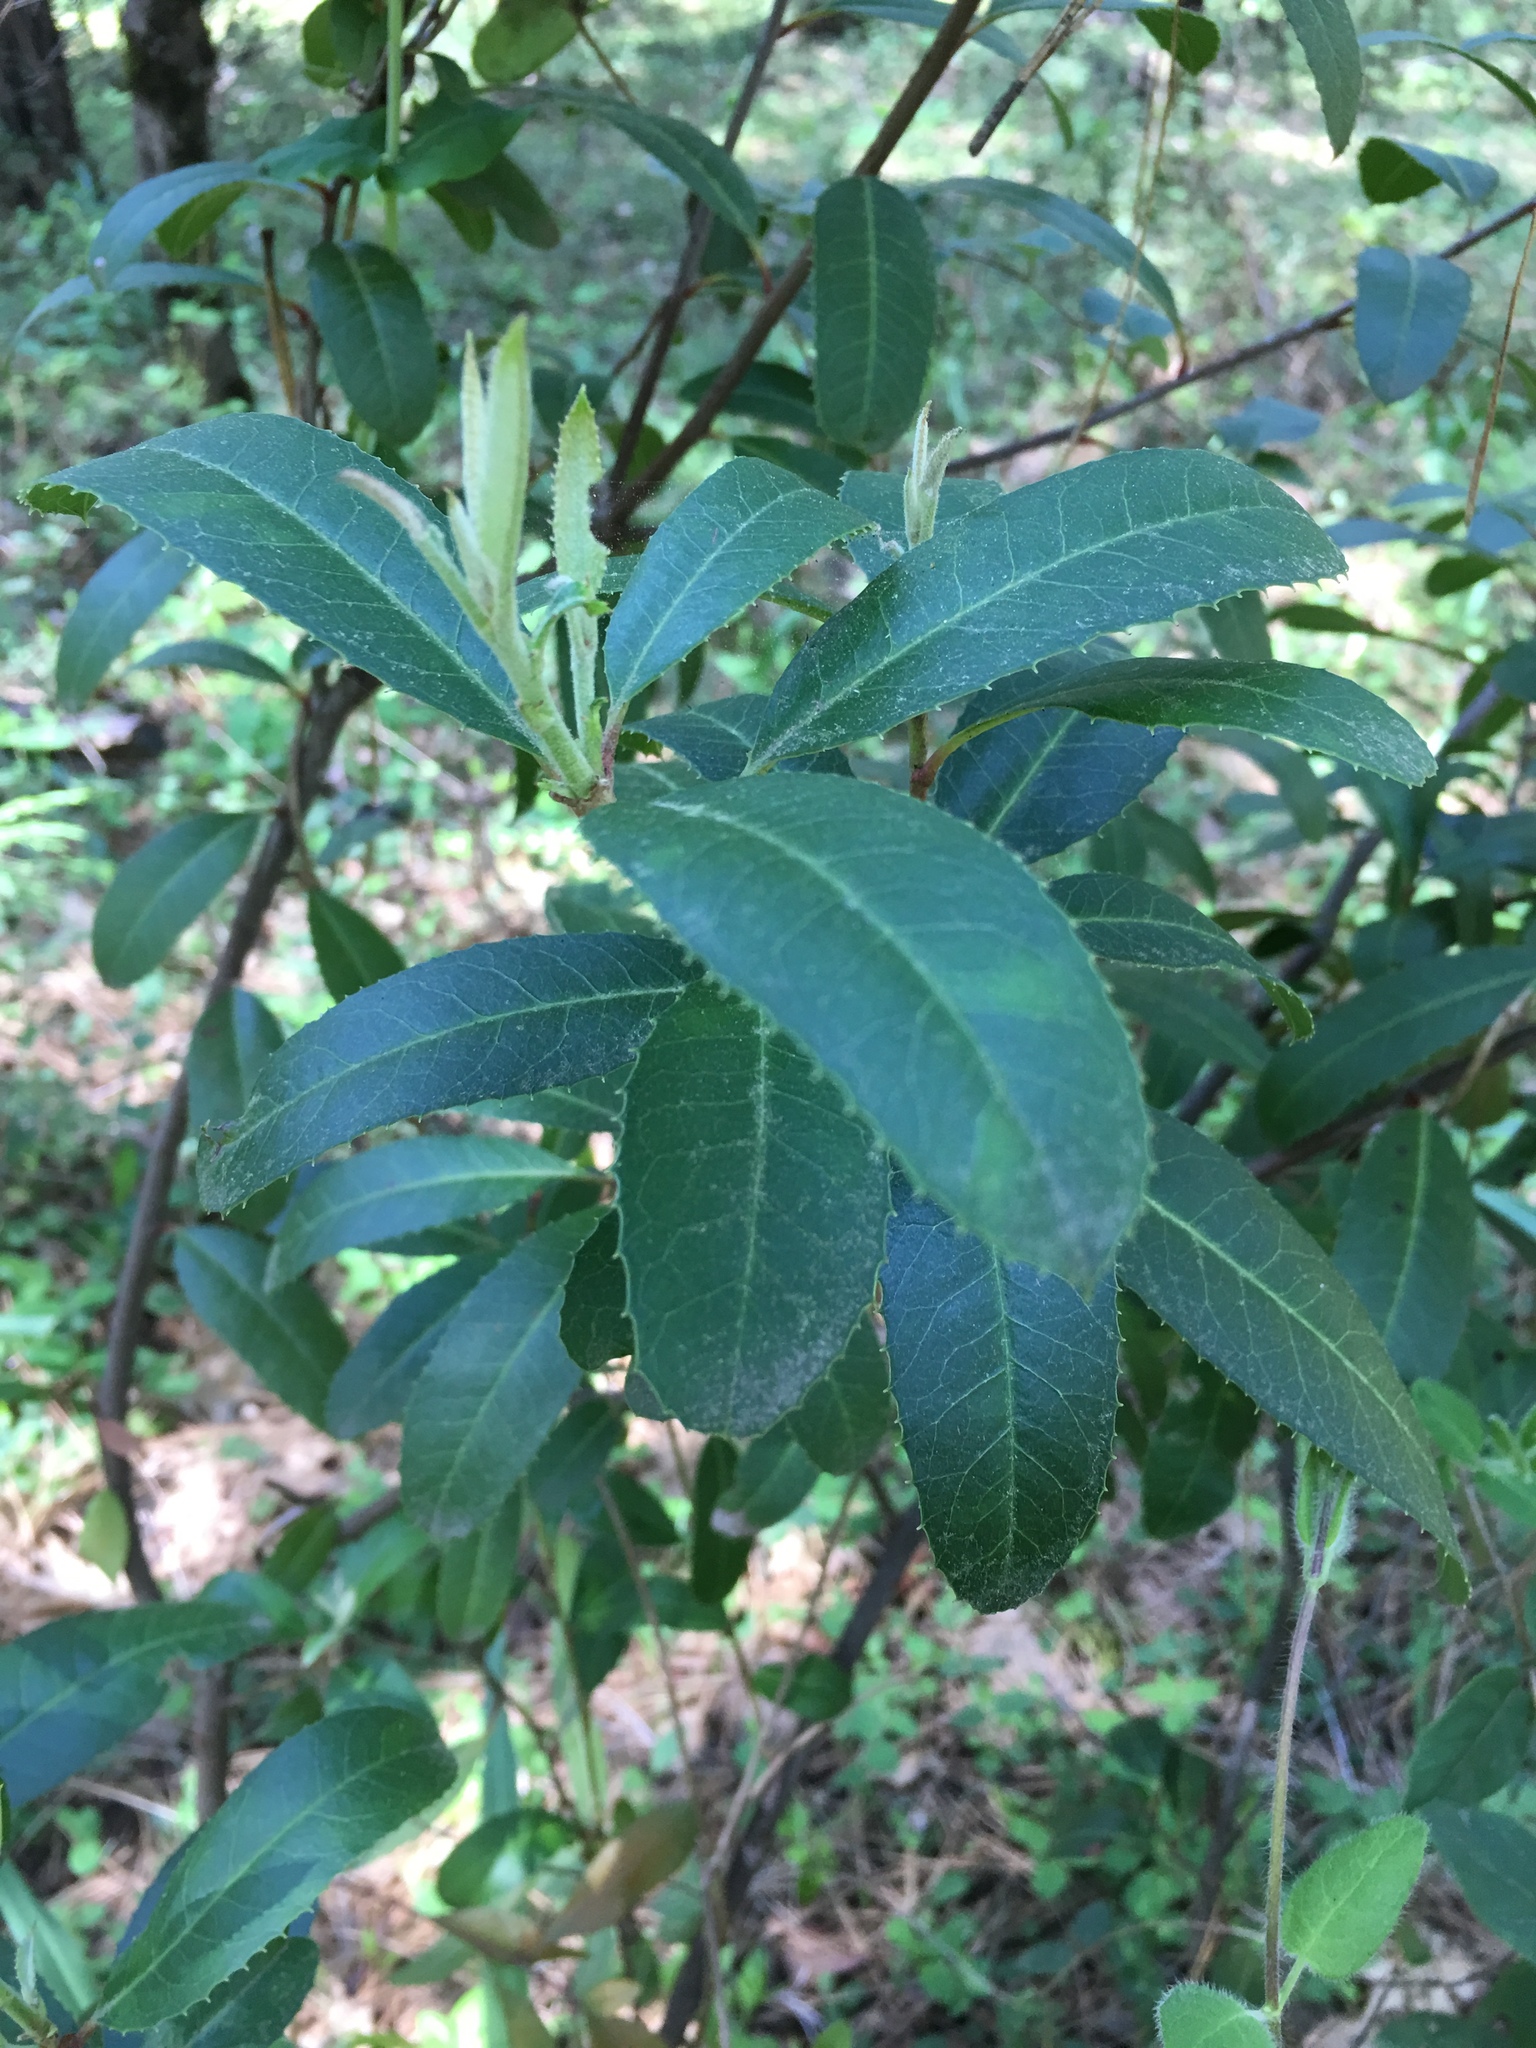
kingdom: Plantae
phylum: Tracheophyta
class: Magnoliopsida
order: Rosales
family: Rosaceae
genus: Heteromeles
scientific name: Heteromeles arbutifolia
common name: California-holly
